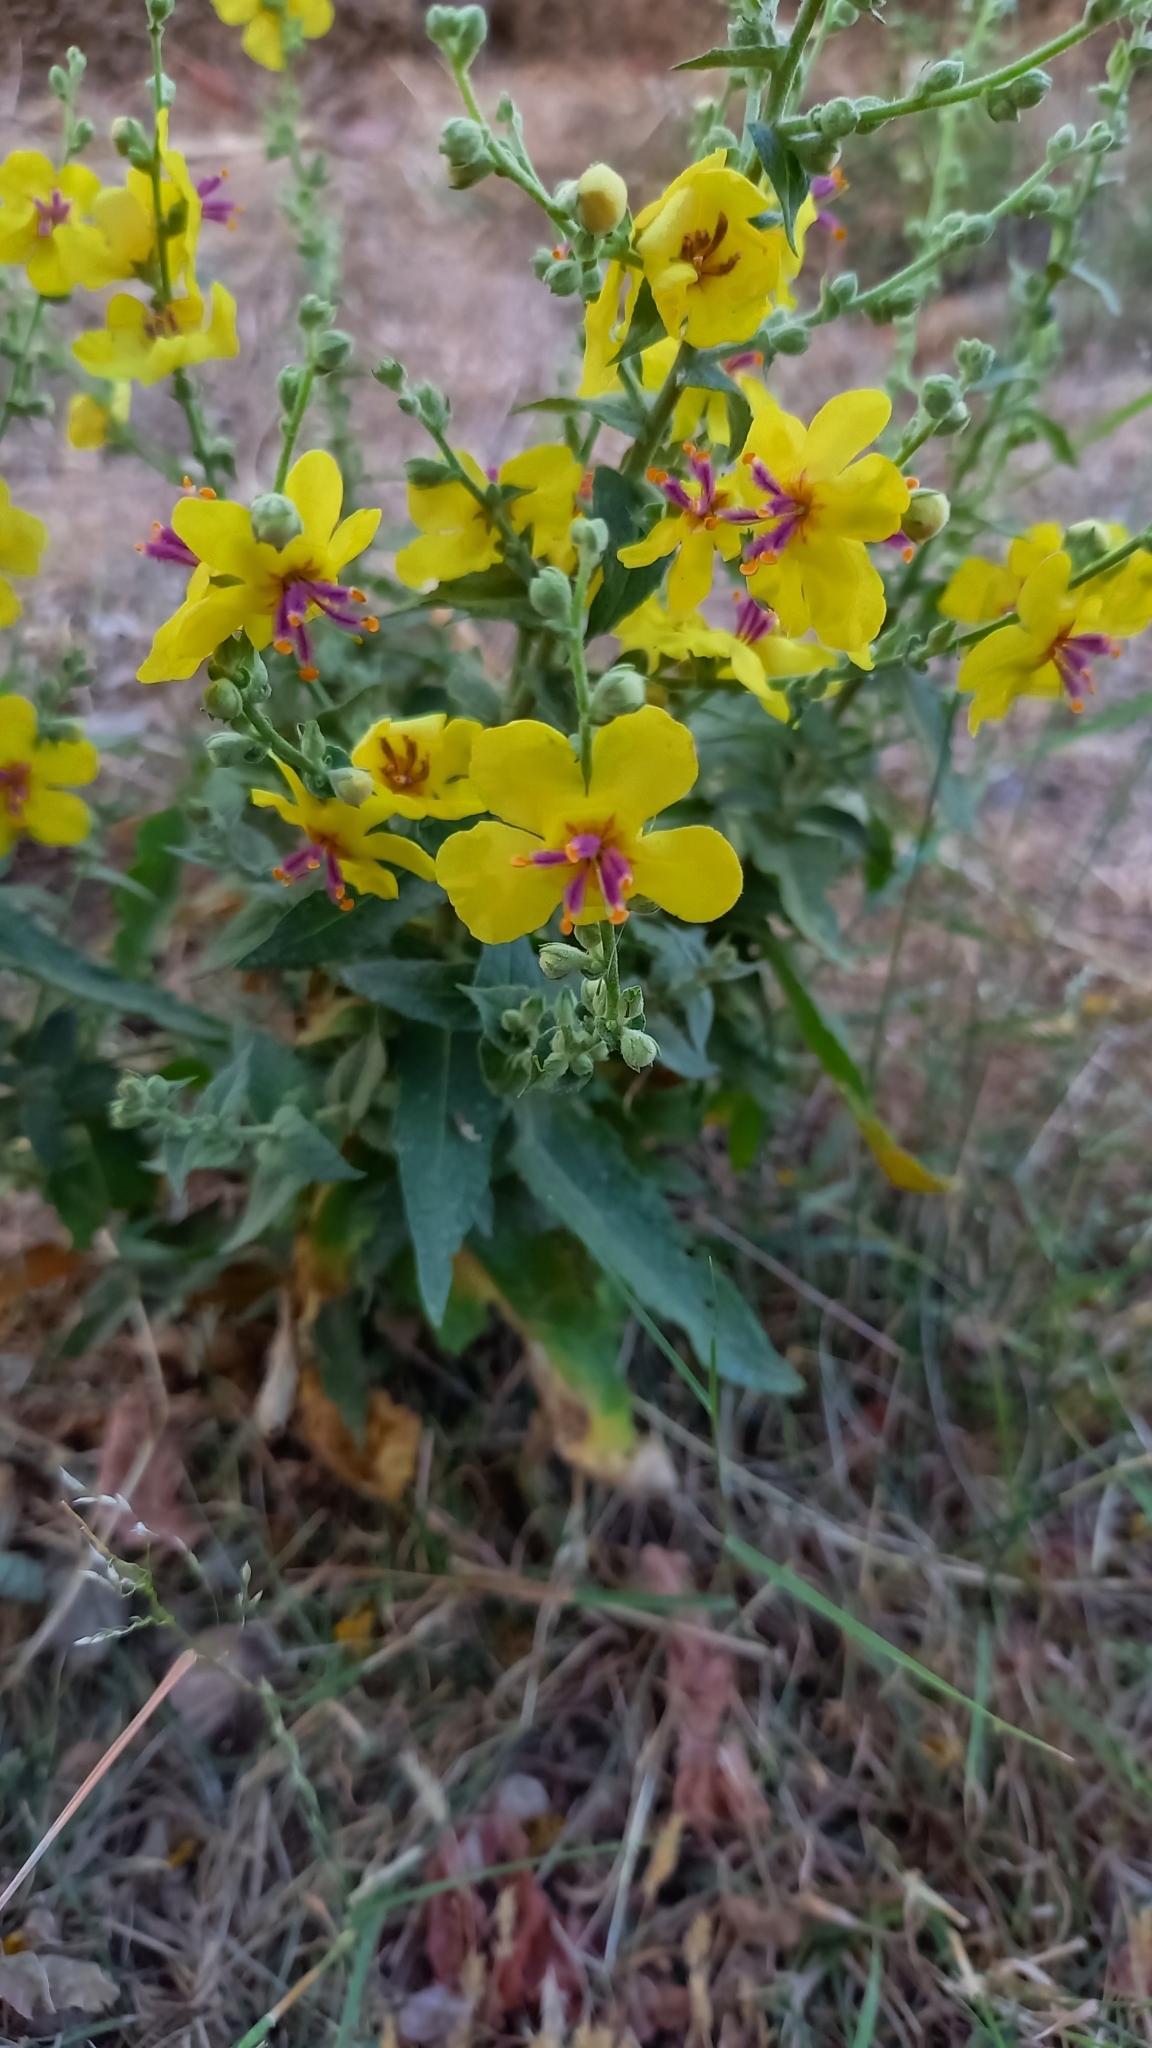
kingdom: Plantae
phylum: Tracheophyta
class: Magnoliopsida
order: Lamiales
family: Scrophulariaceae
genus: Verbascum
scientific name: Verbascum sinuatum
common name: Wavyleaf mullein
